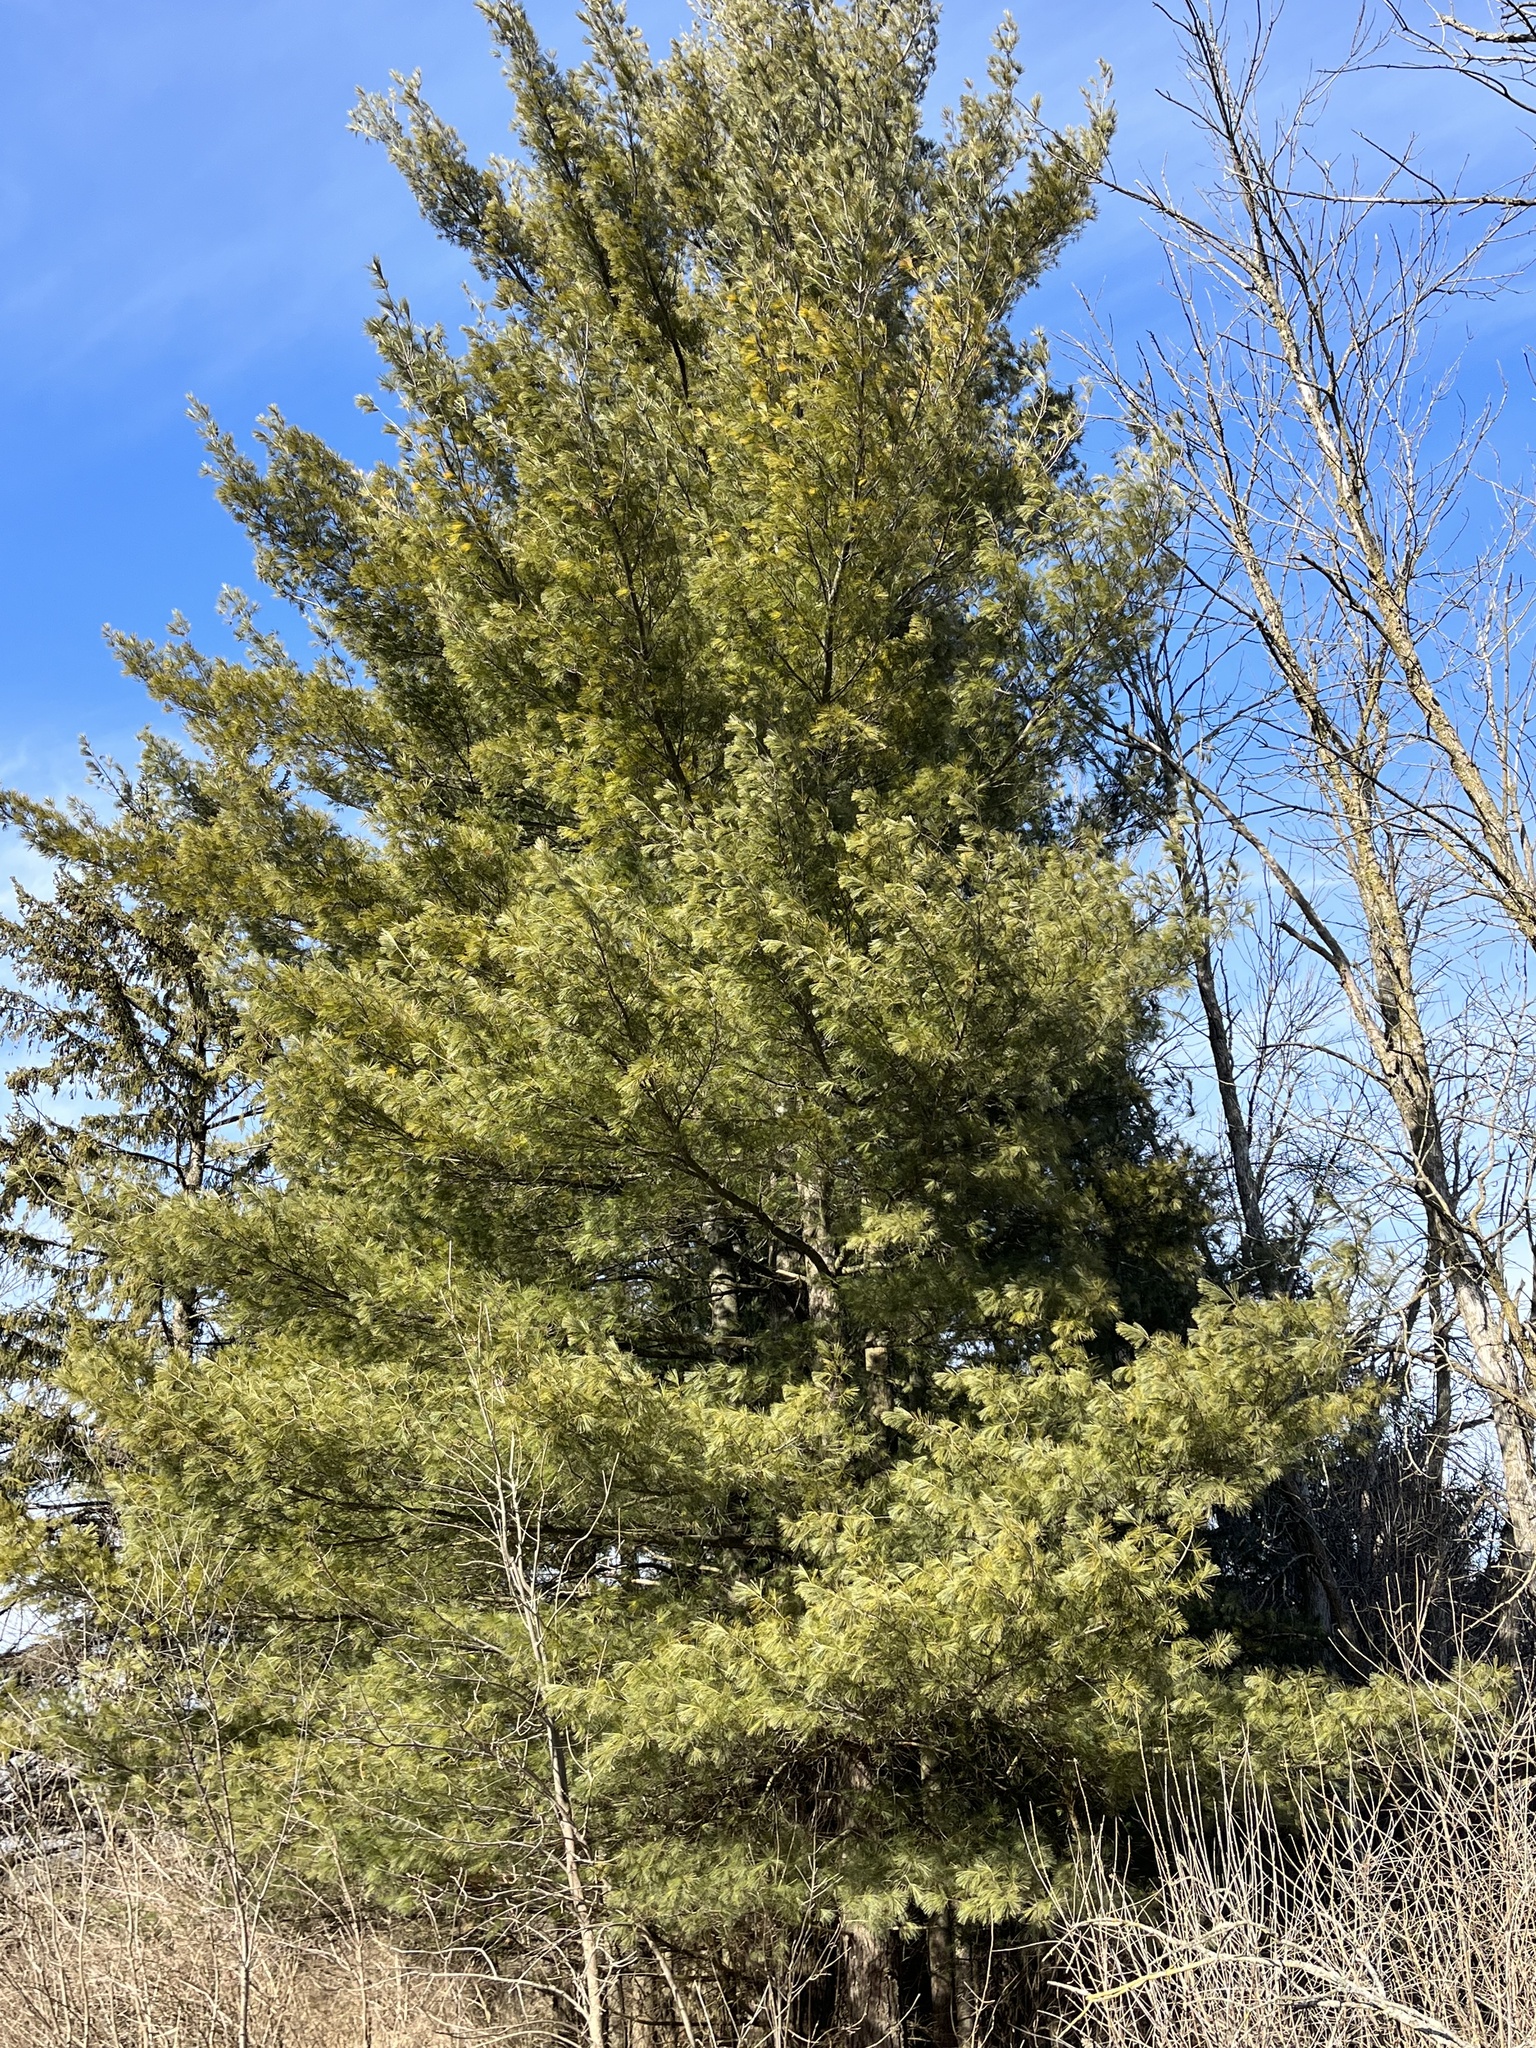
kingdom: Plantae
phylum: Tracheophyta
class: Pinopsida
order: Pinales
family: Pinaceae
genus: Pinus
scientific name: Pinus strobus
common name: Weymouth pine
